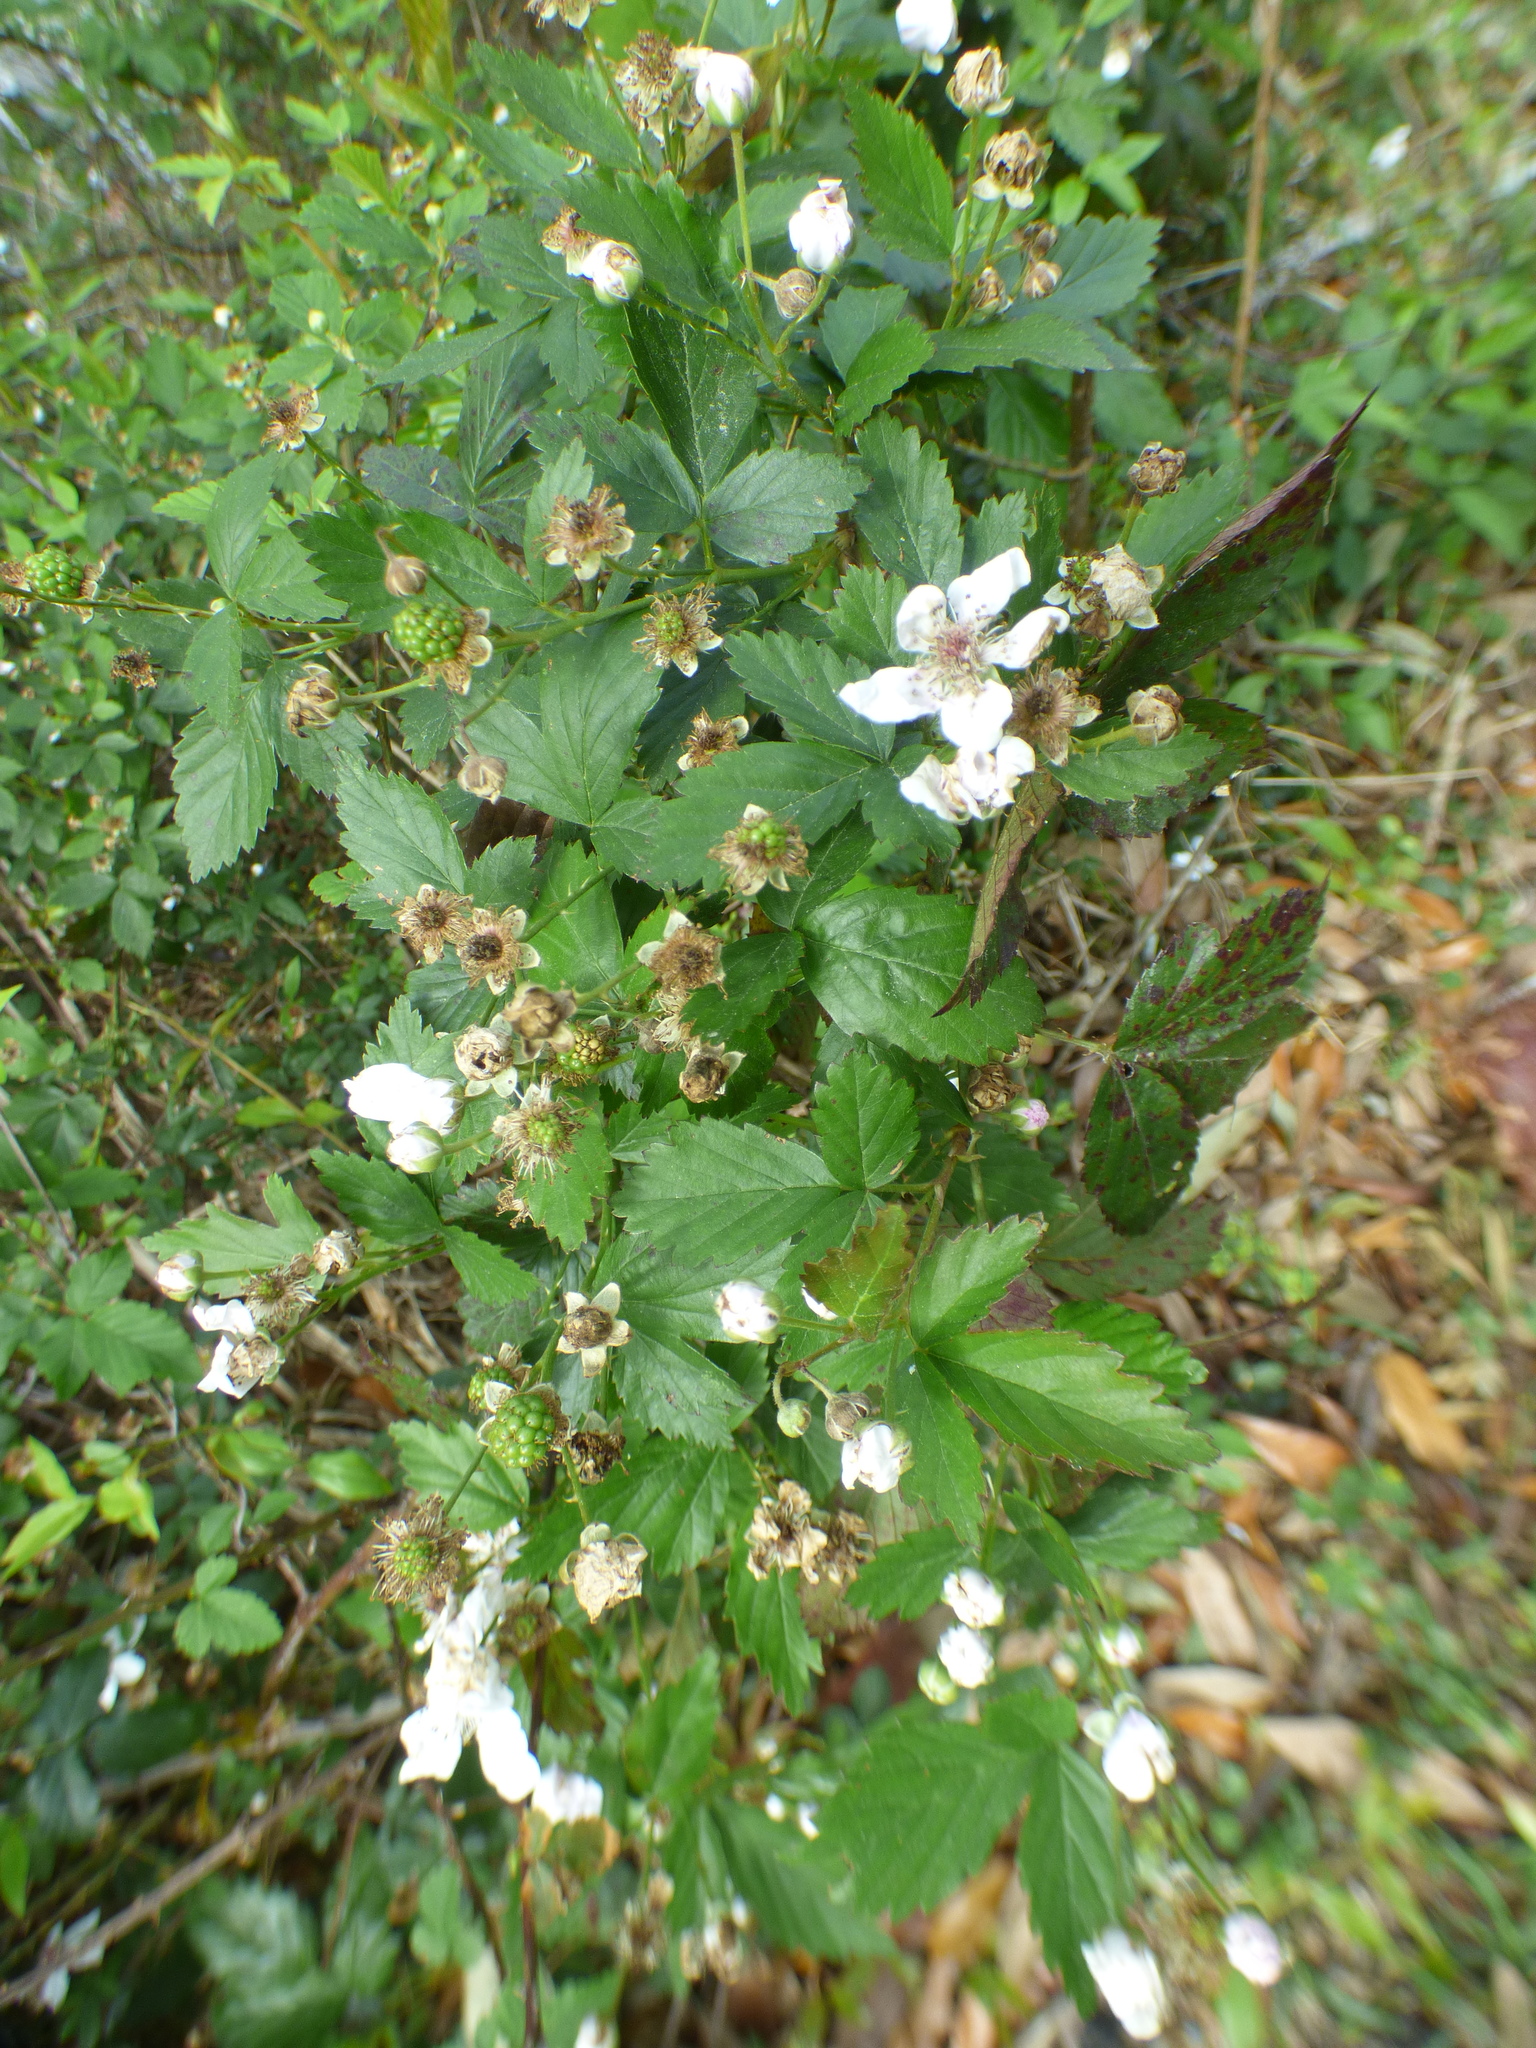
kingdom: Plantae
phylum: Tracheophyta
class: Magnoliopsida
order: Rosales
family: Rosaceae
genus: Rubus
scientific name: Rubus pensilvanicus
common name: Pennsylvania blackberry
